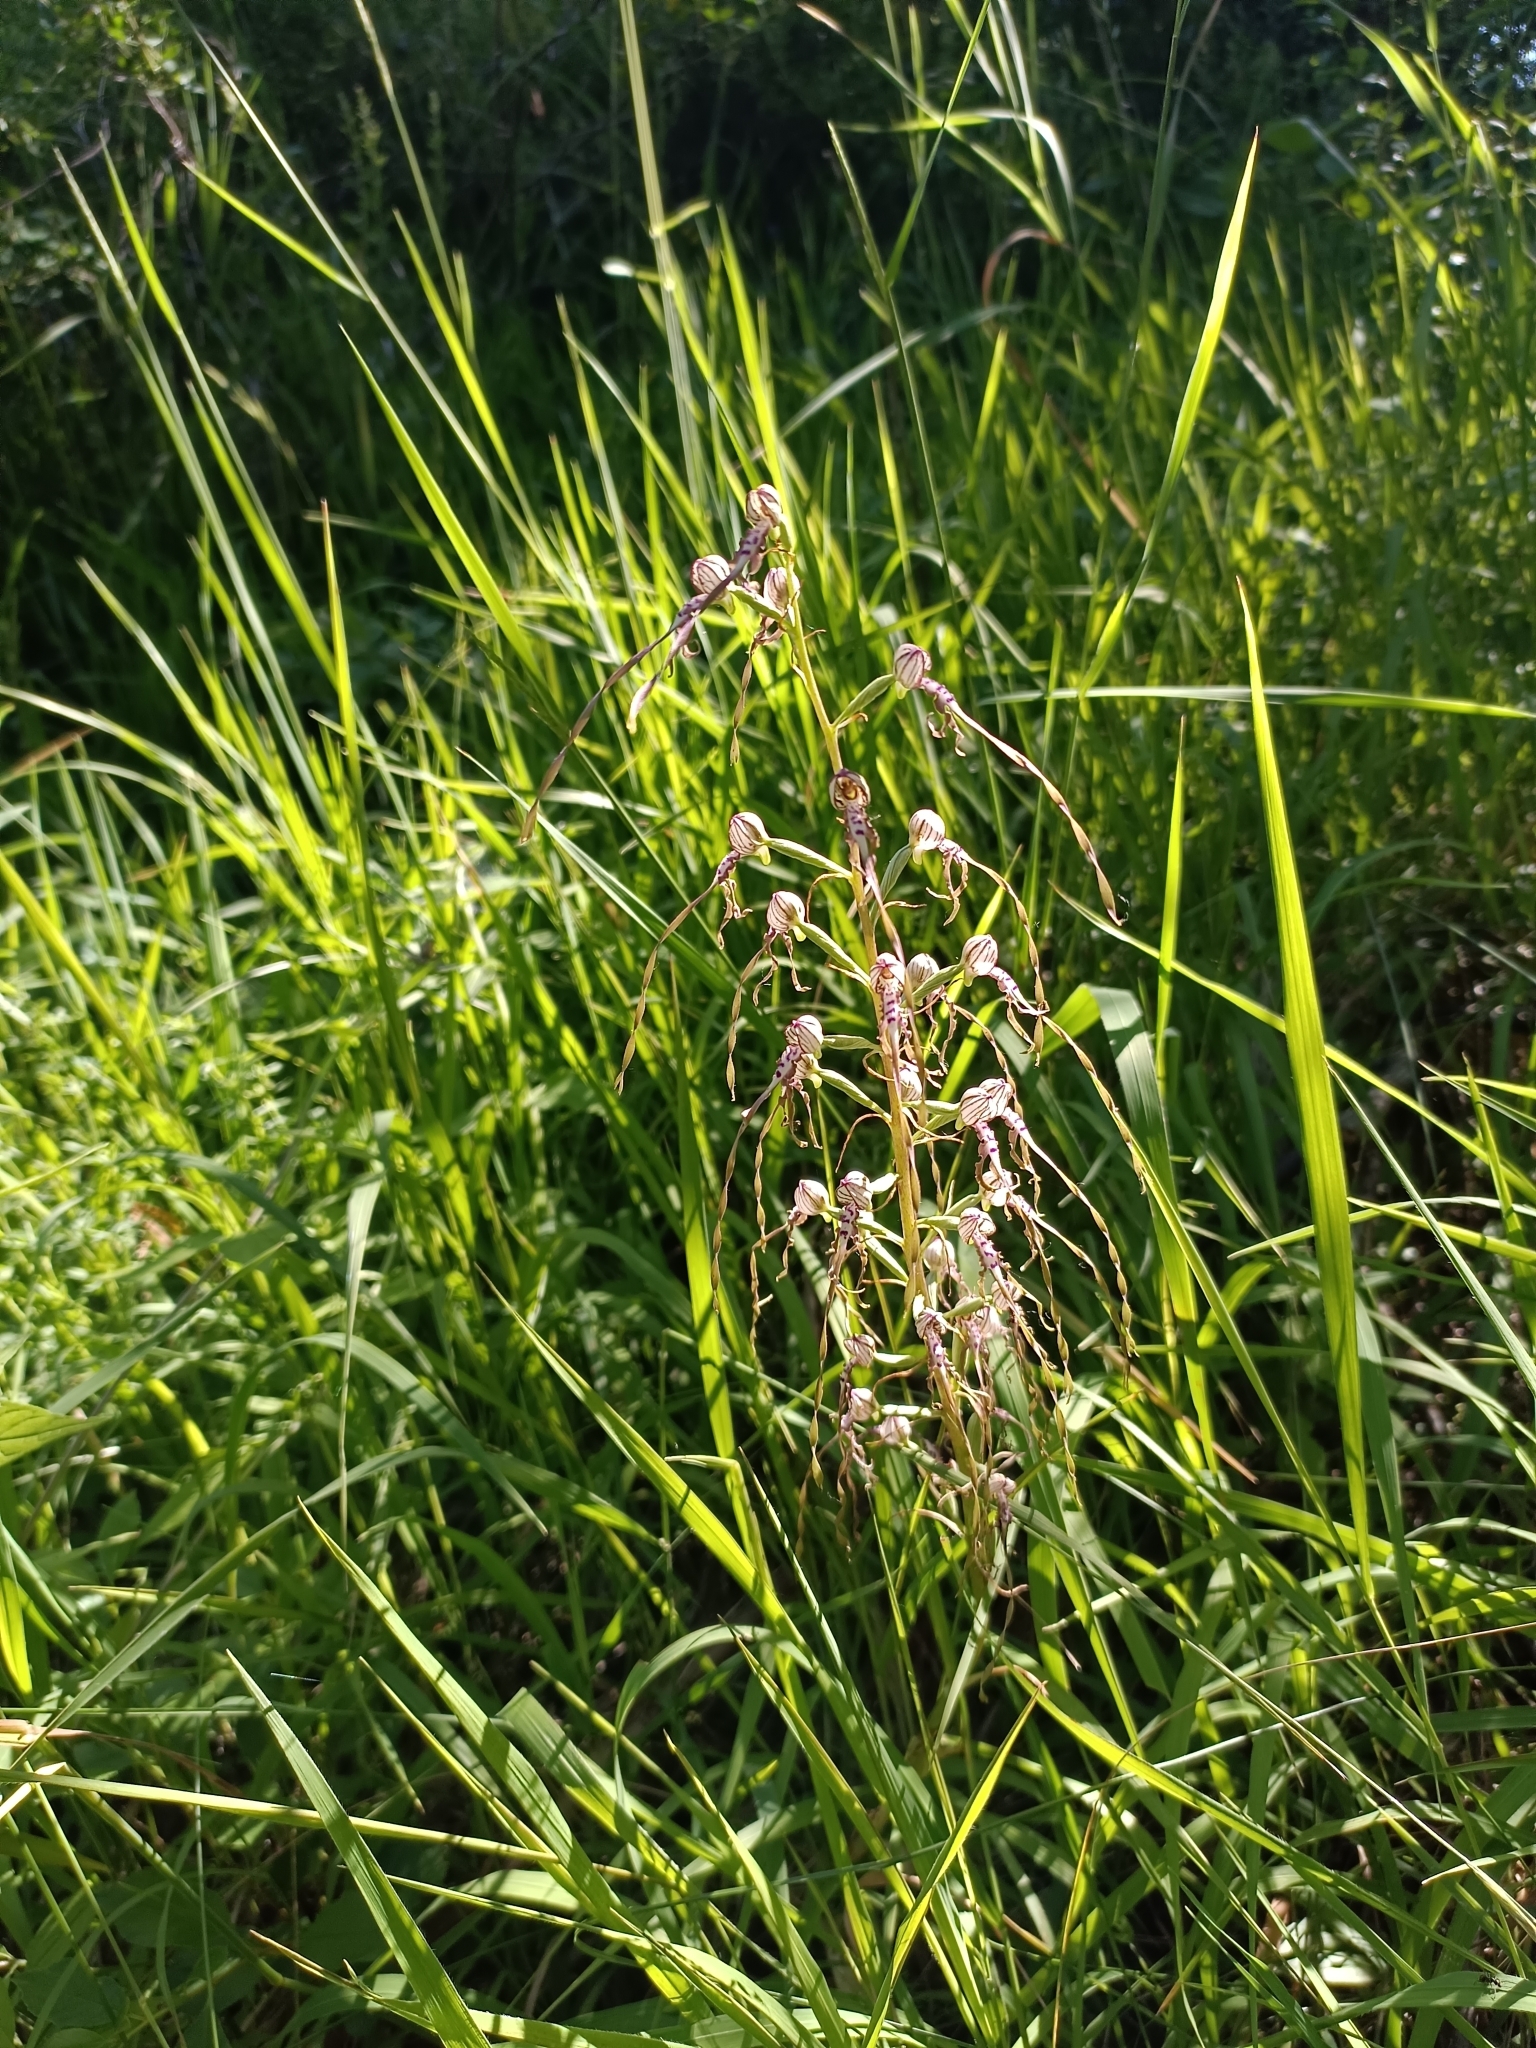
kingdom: Plantae
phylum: Tracheophyta
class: Liliopsida
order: Asparagales
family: Orchidaceae
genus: Himantoglossum
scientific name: Himantoglossum adriaticum
